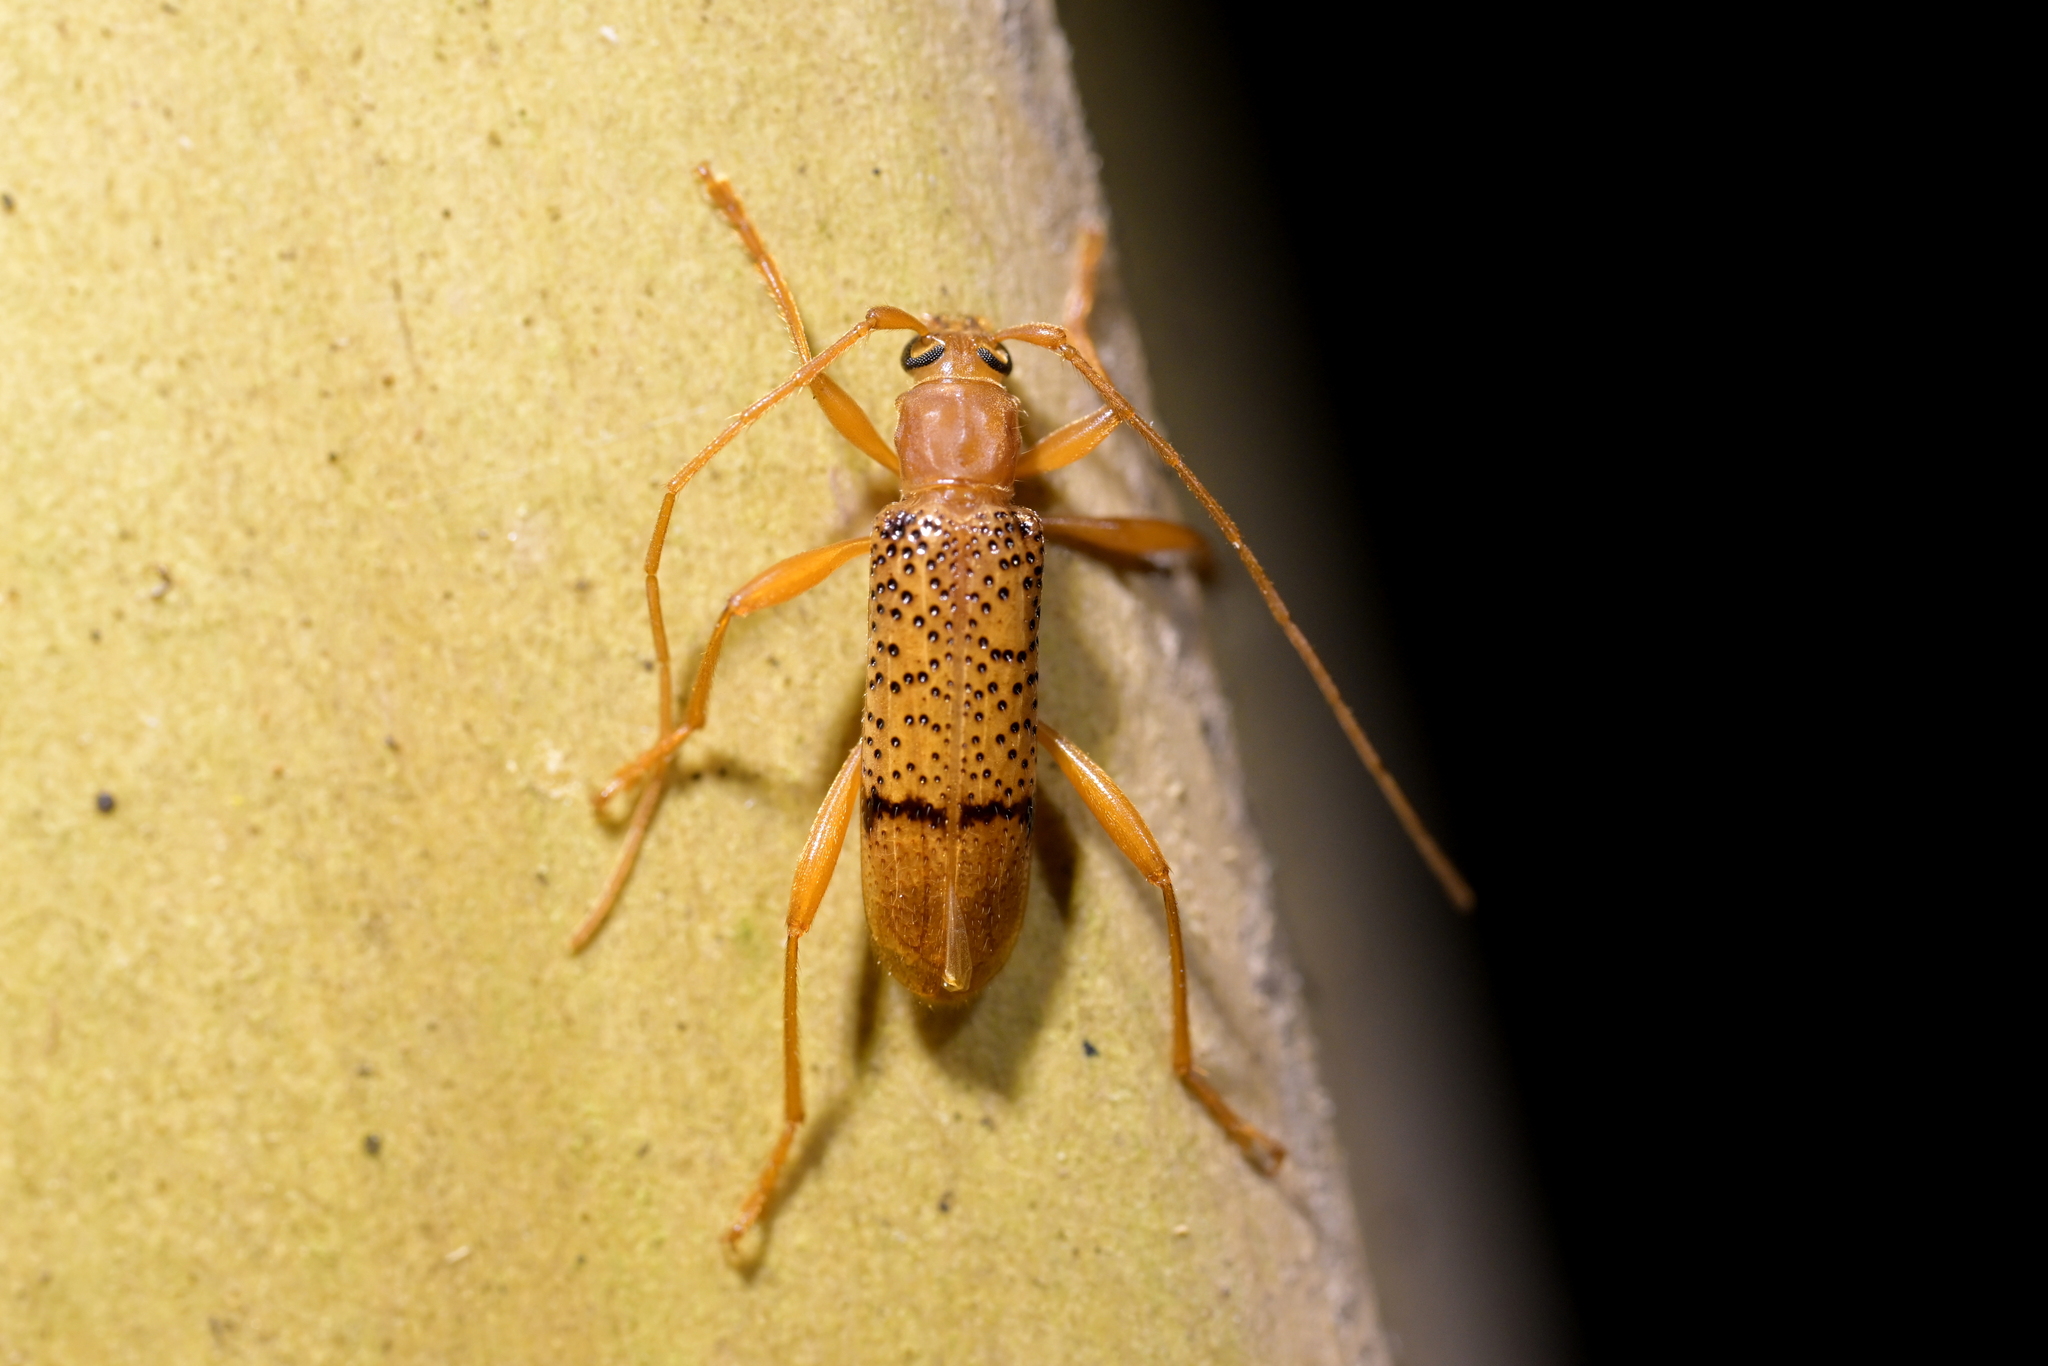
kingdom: Animalia
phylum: Arthropoda
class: Insecta
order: Coleoptera
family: Cerambycidae
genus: Xuthodes
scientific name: Xuthodes punctipennis
